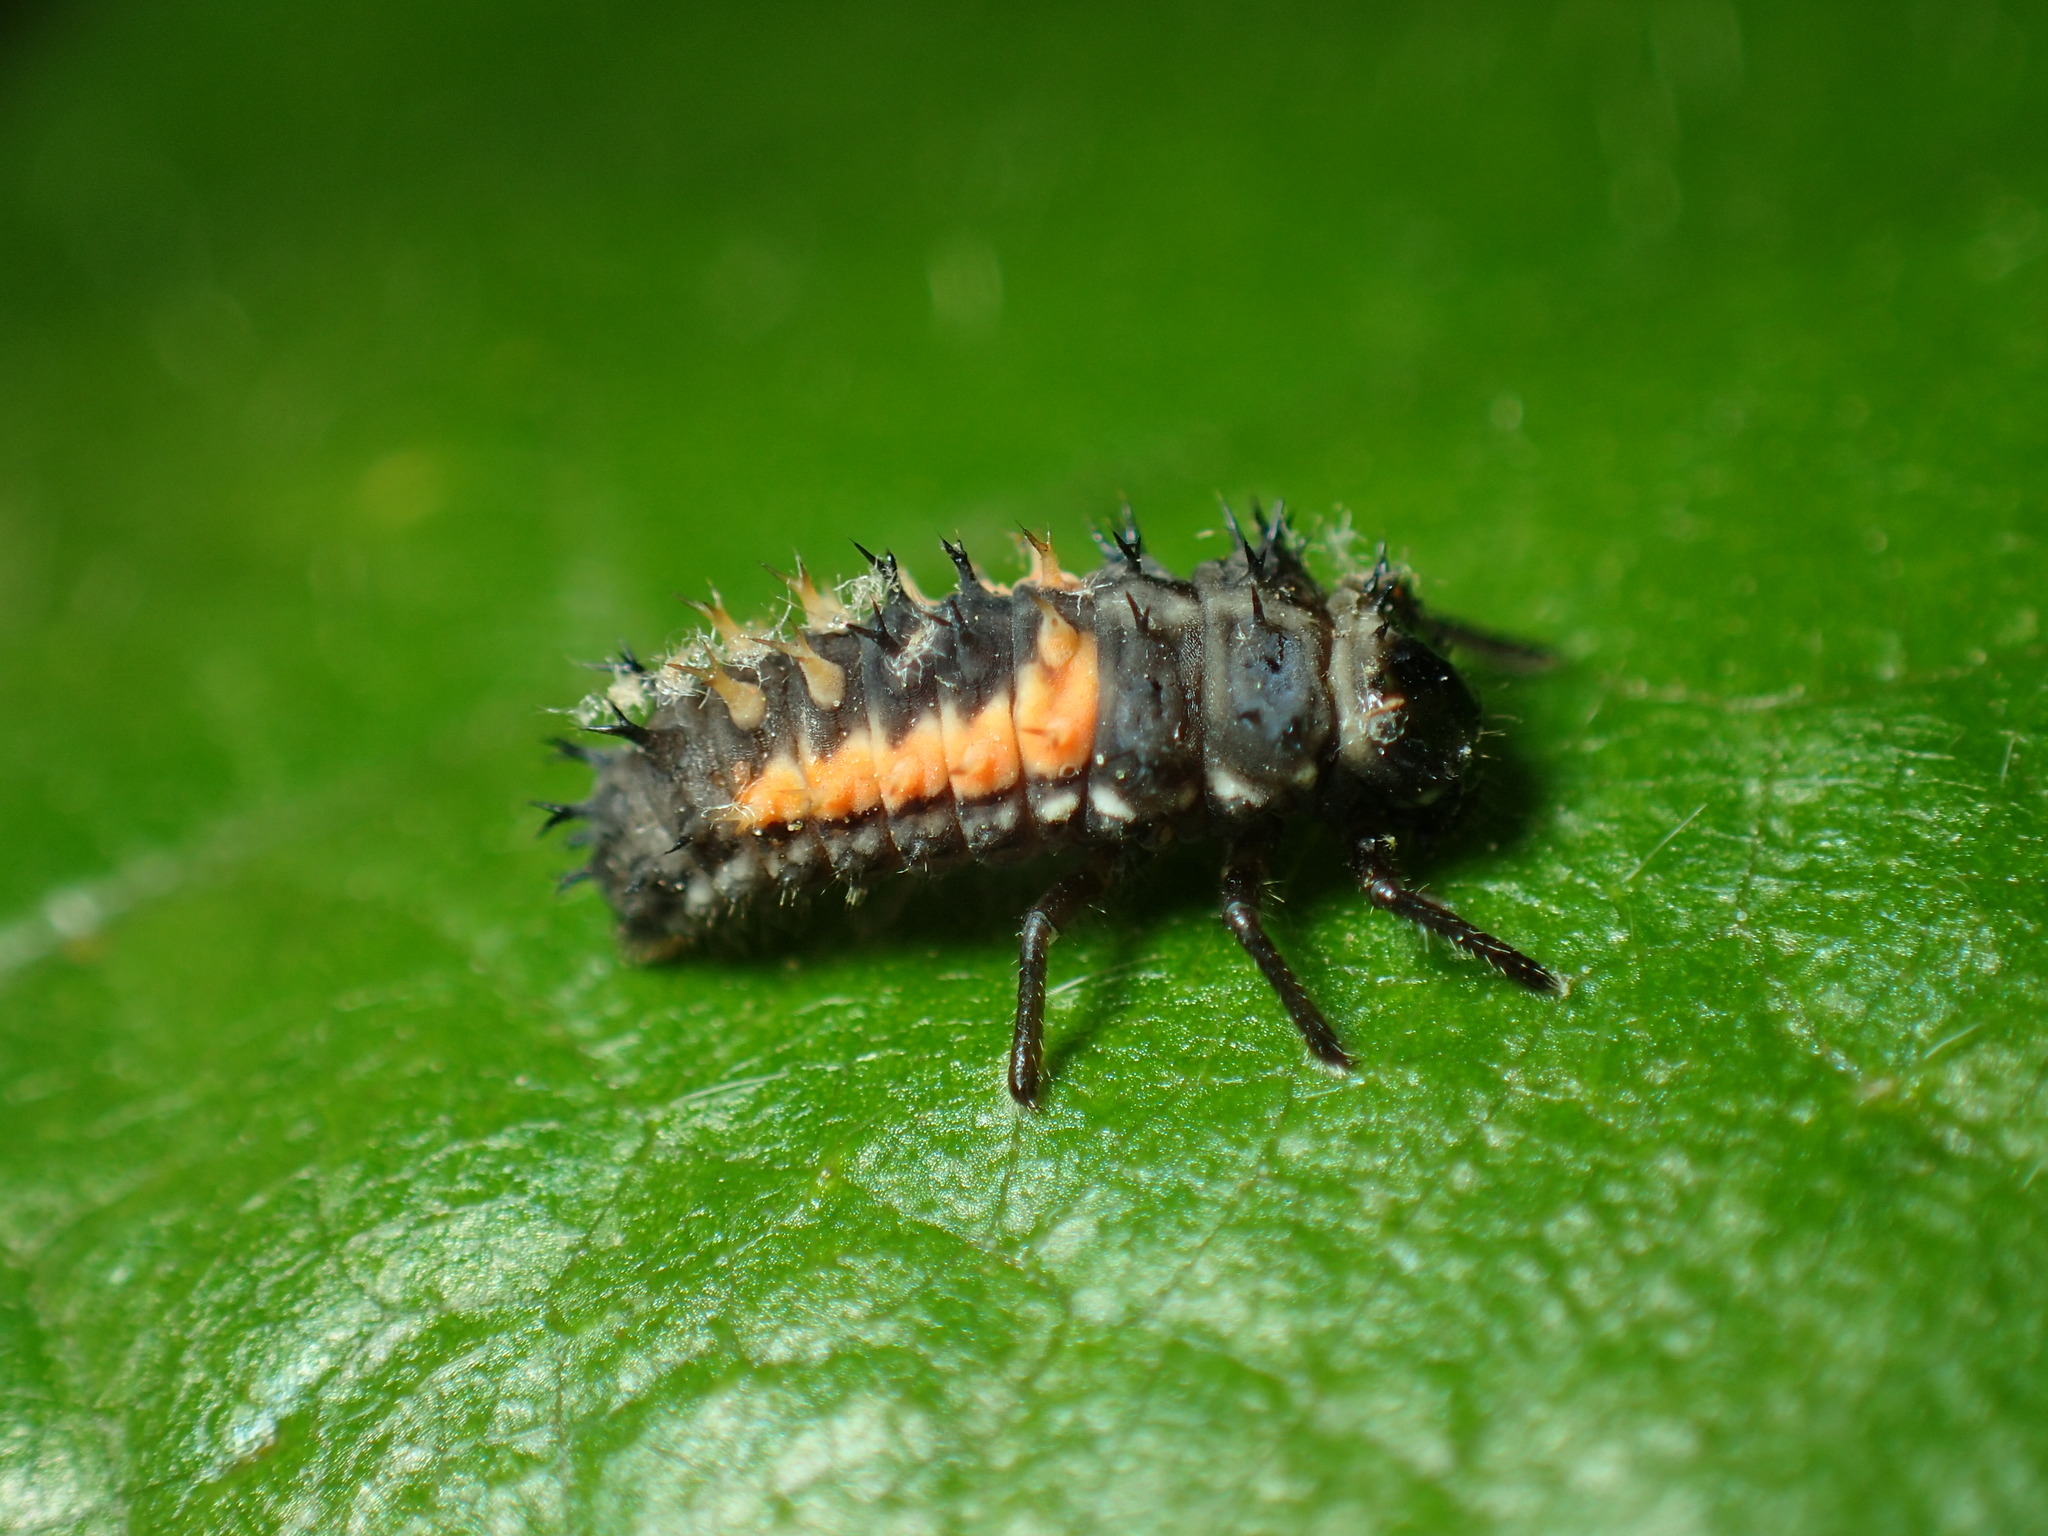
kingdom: Animalia
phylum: Arthropoda
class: Insecta
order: Coleoptera
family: Coccinellidae
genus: Harmonia
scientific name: Harmonia axyridis
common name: Harlequin ladybird
